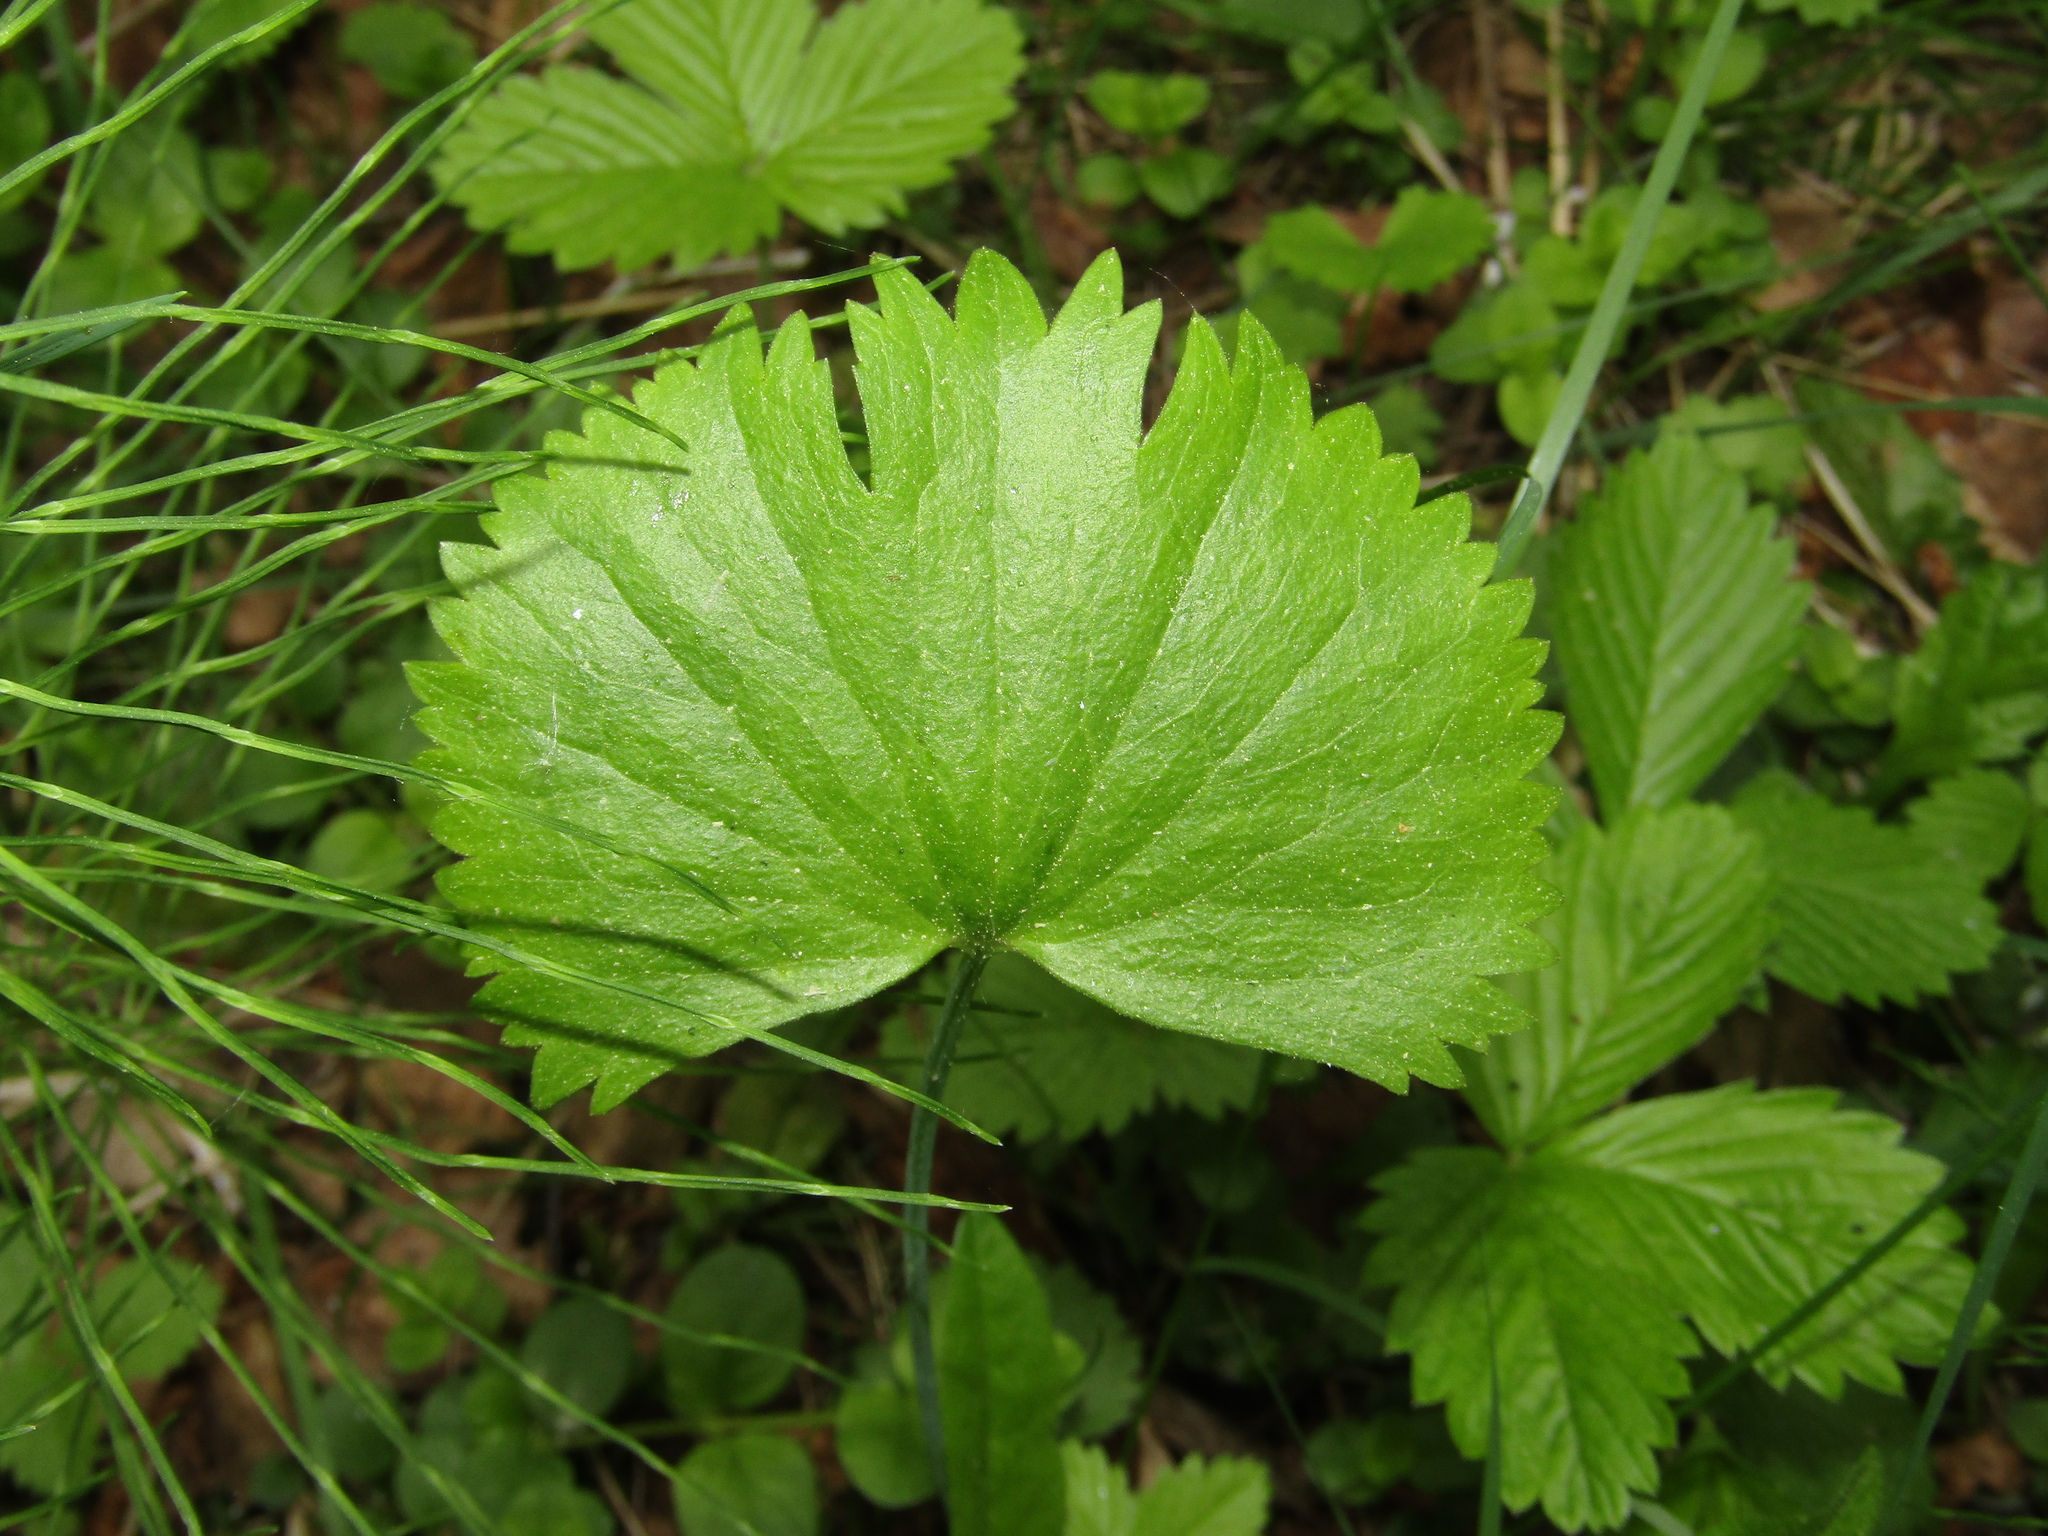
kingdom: Plantae
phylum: Tracheophyta
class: Magnoliopsida
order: Ranunculales
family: Ranunculaceae
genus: Ranunculus
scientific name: Ranunculus cassubicus
